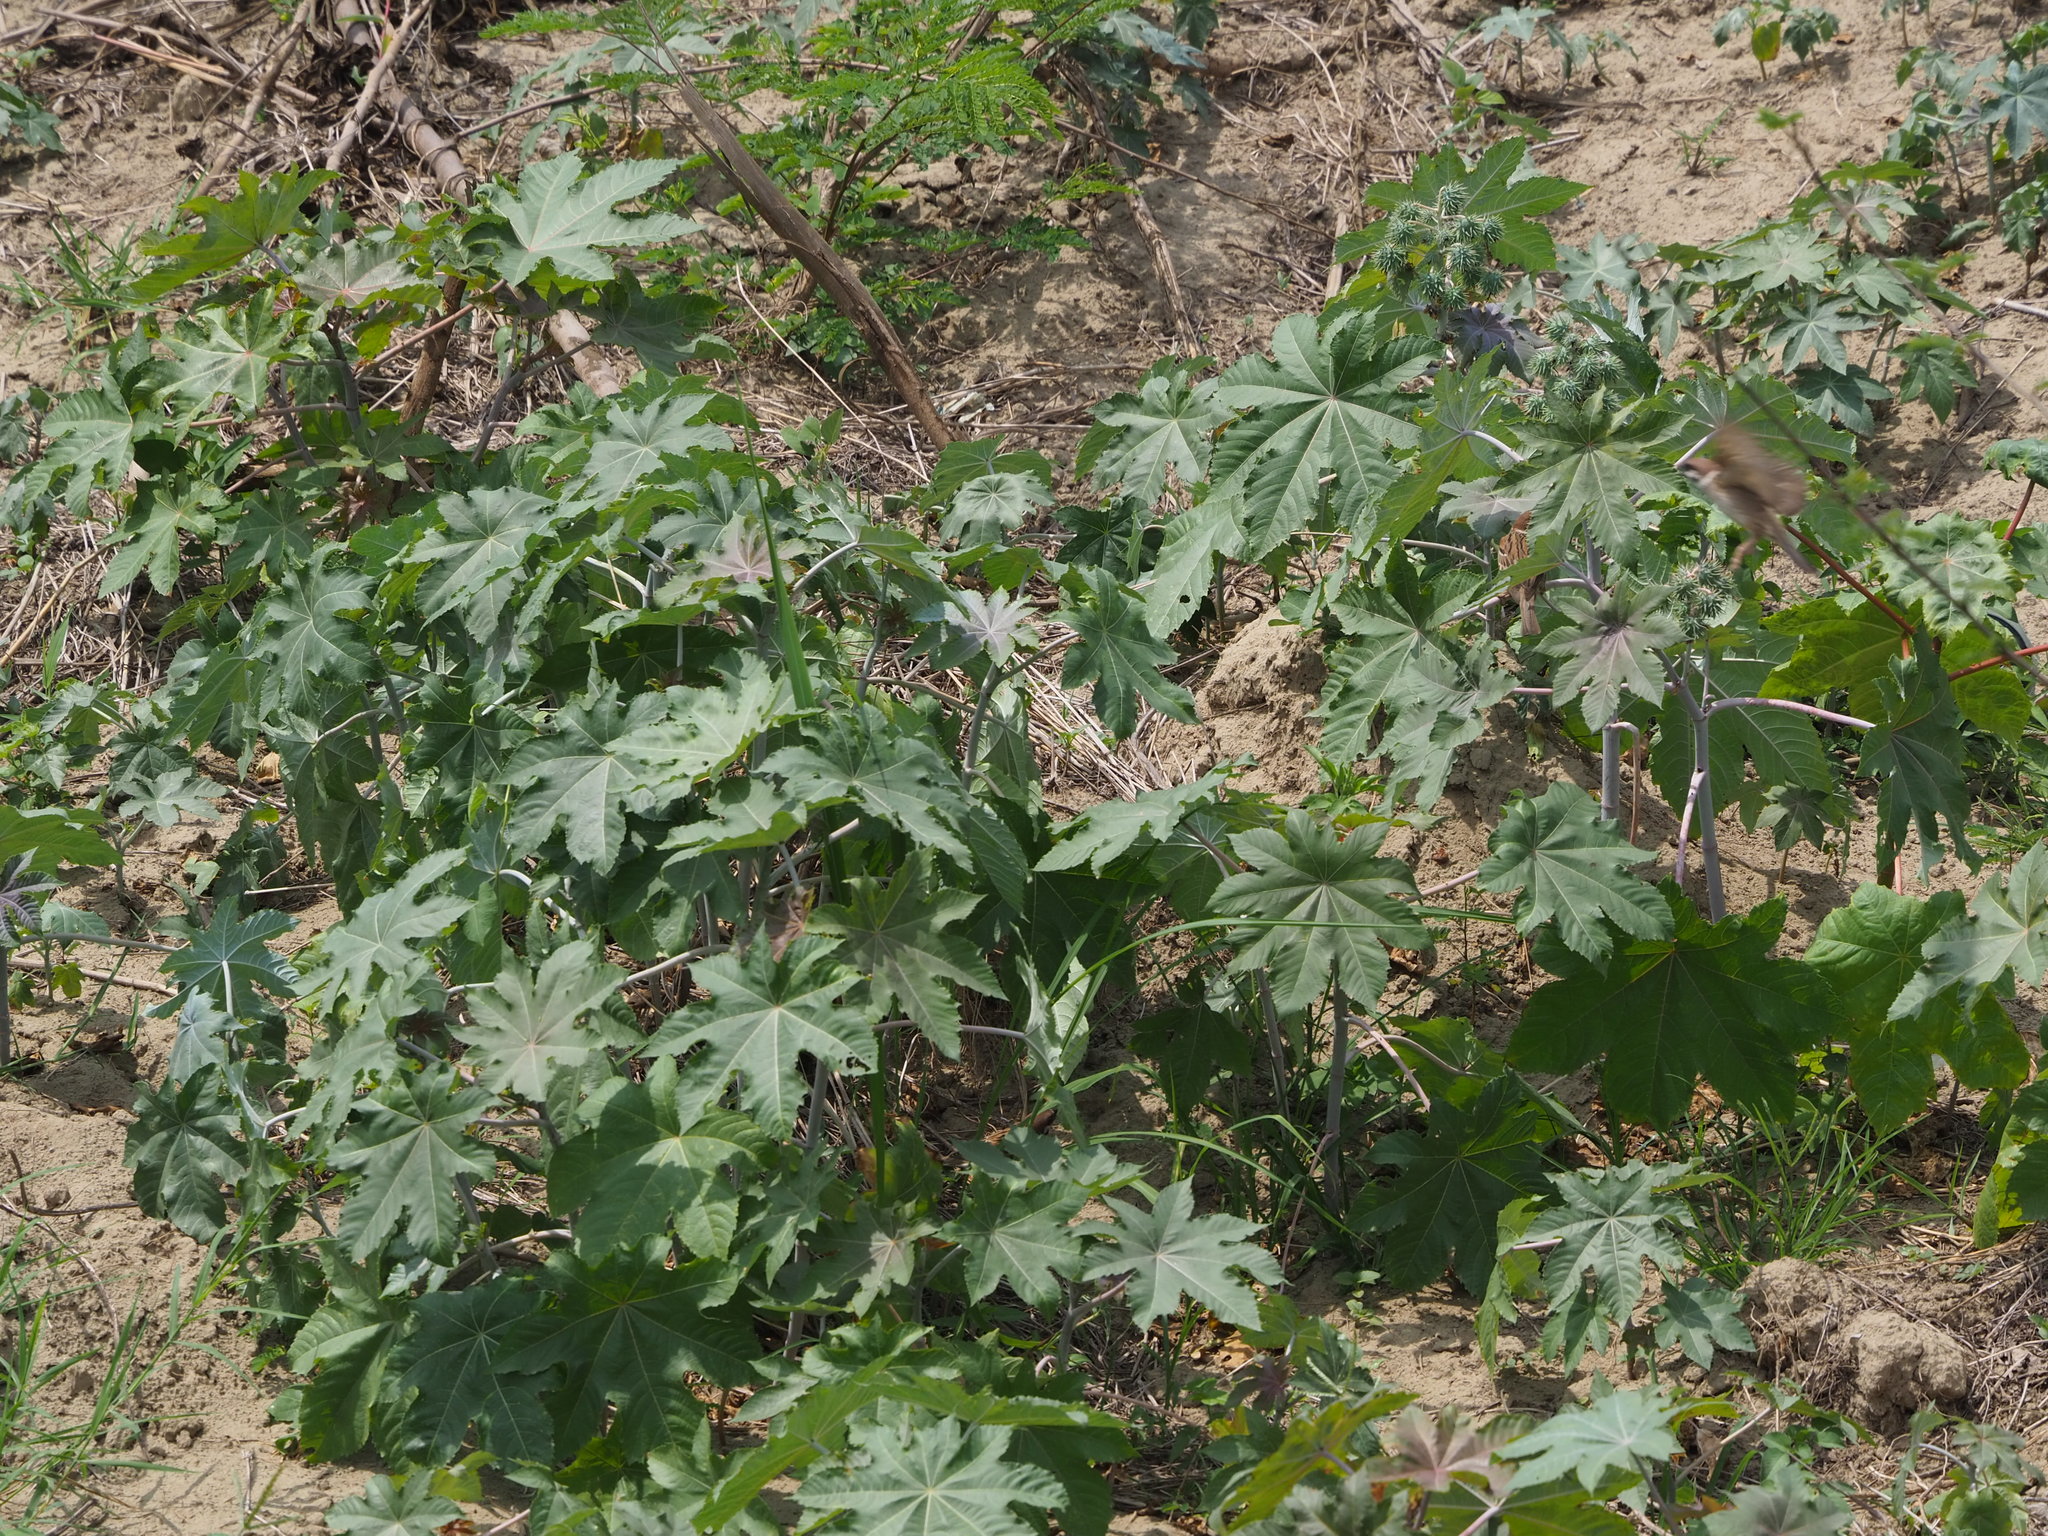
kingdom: Plantae
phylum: Tracheophyta
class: Magnoliopsida
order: Malpighiales
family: Euphorbiaceae
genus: Ricinus
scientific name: Ricinus communis
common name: Castor-oil-plant
